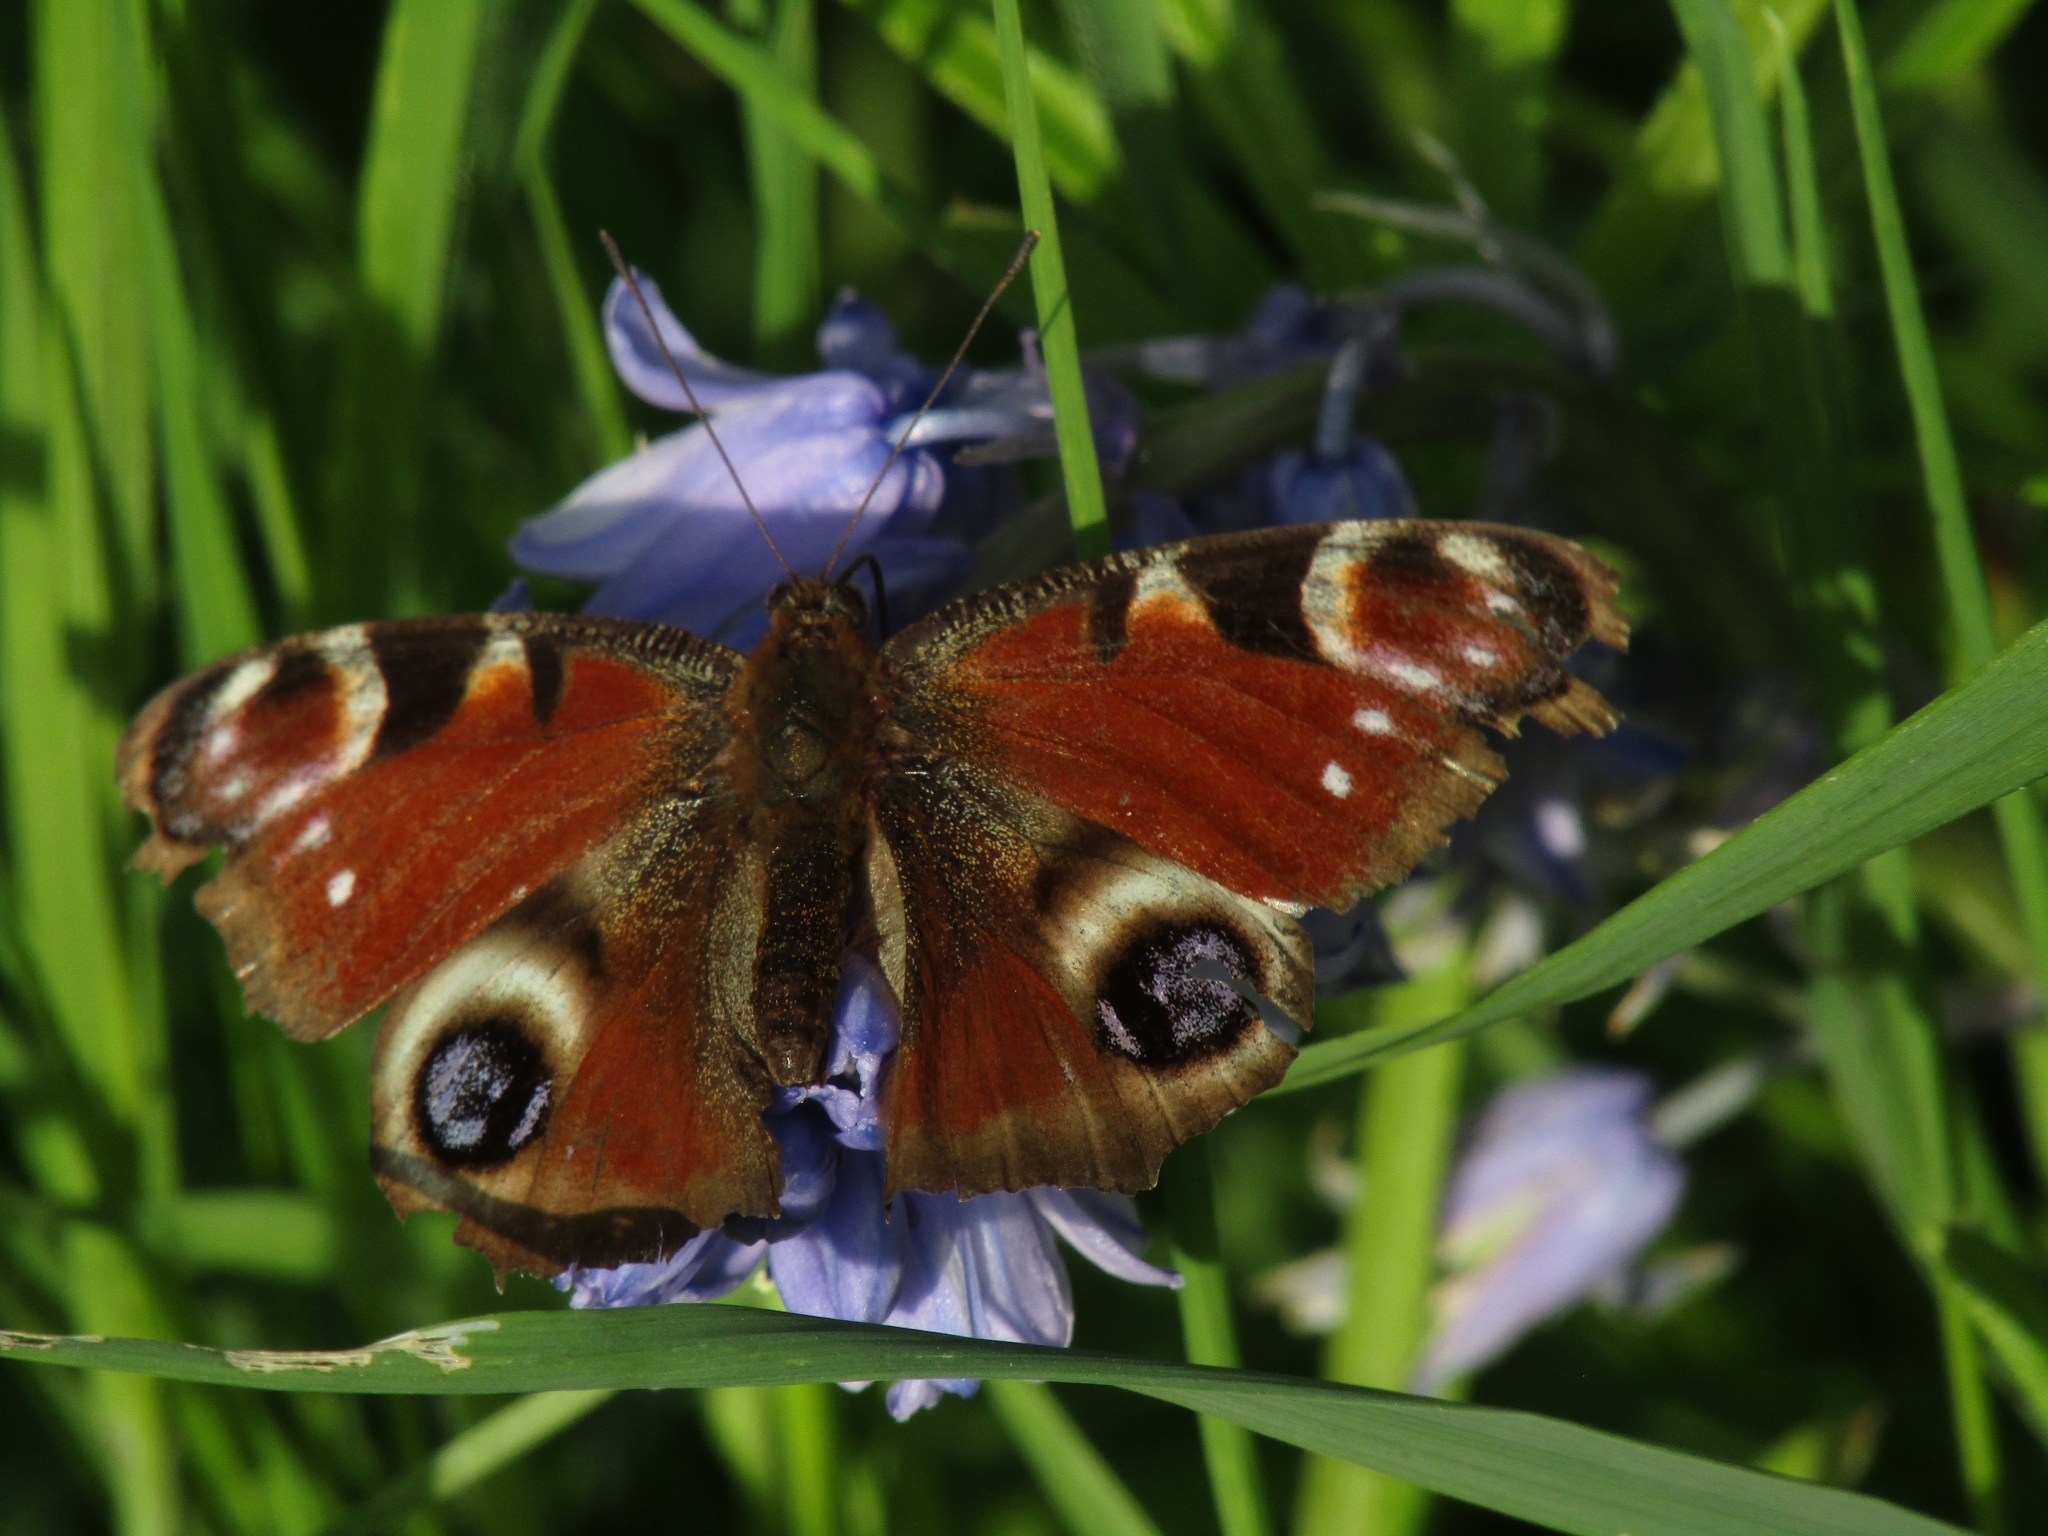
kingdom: Animalia
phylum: Arthropoda
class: Insecta
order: Lepidoptera
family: Nymphalidae
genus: Aglais
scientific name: Aglais io
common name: Peacock
